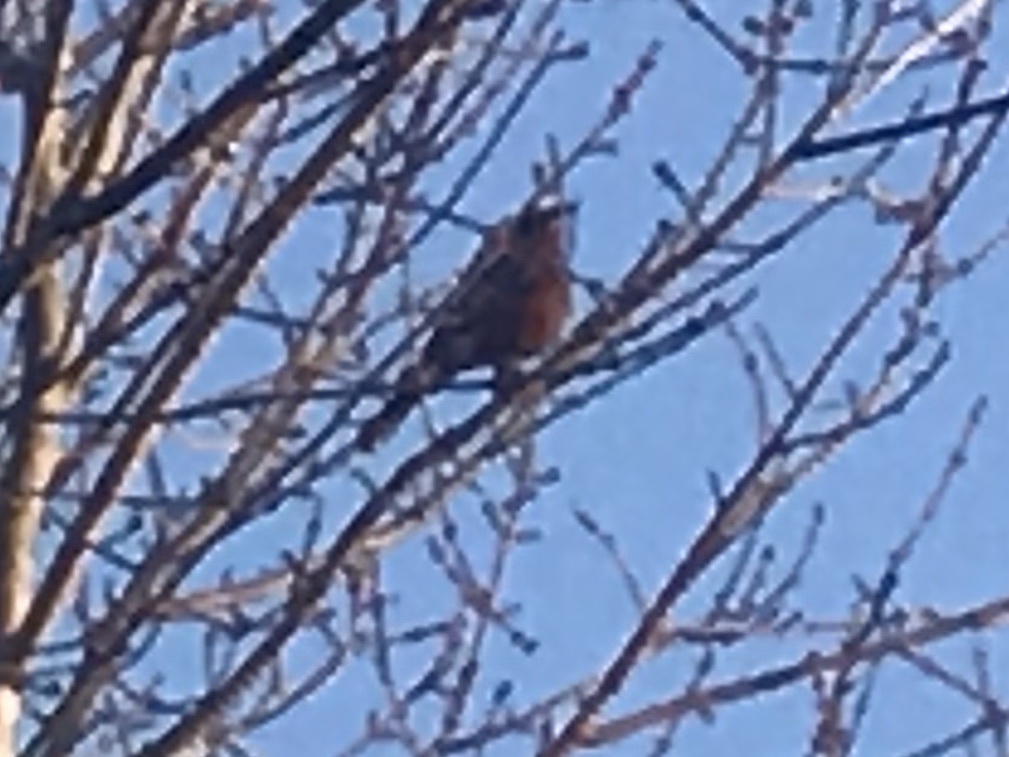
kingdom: Animalia
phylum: Chordata
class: Aves
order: Passeriformes
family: Turdidae
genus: Turdus
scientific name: Turdus migratorius
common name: American robin
